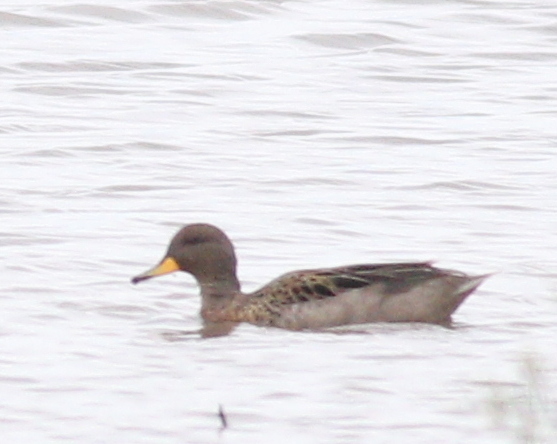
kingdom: Animalia
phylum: Chordata
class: Aves
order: Anseriformes
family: Anatidae
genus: Anas
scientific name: Anas flavirostris
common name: Yellow-billed teal
